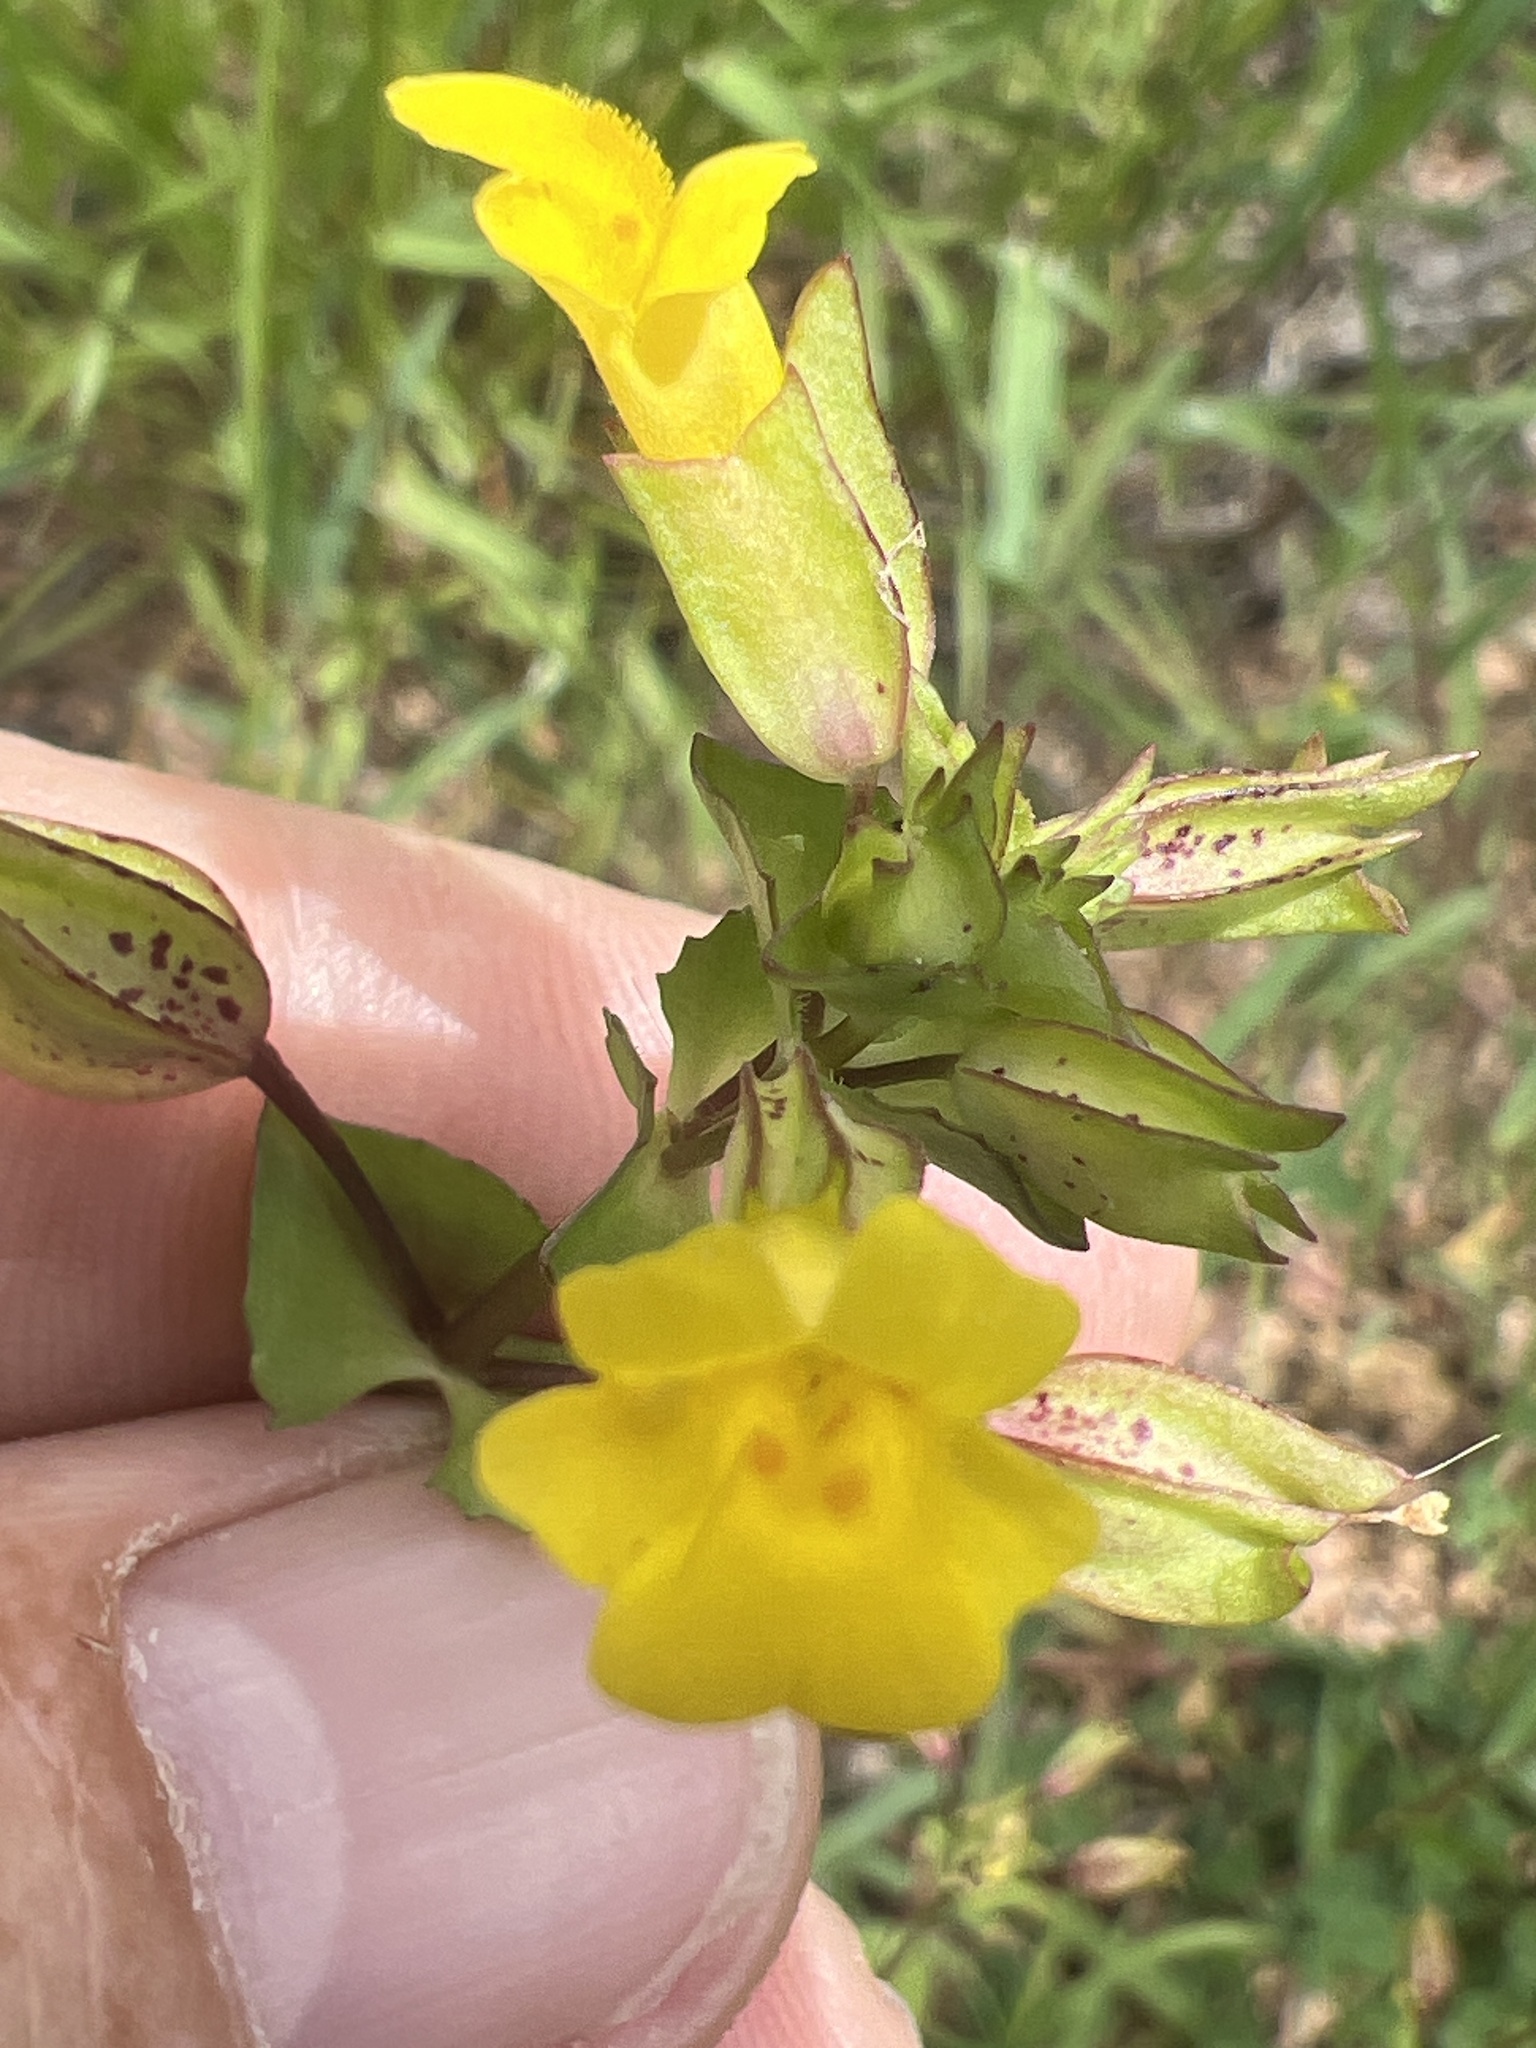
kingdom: Plantae
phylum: Tracheophyta
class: Magnoliopsida
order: Lamiales
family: Phrymaceae
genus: Erythranthe
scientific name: Erythranthe inamoena
